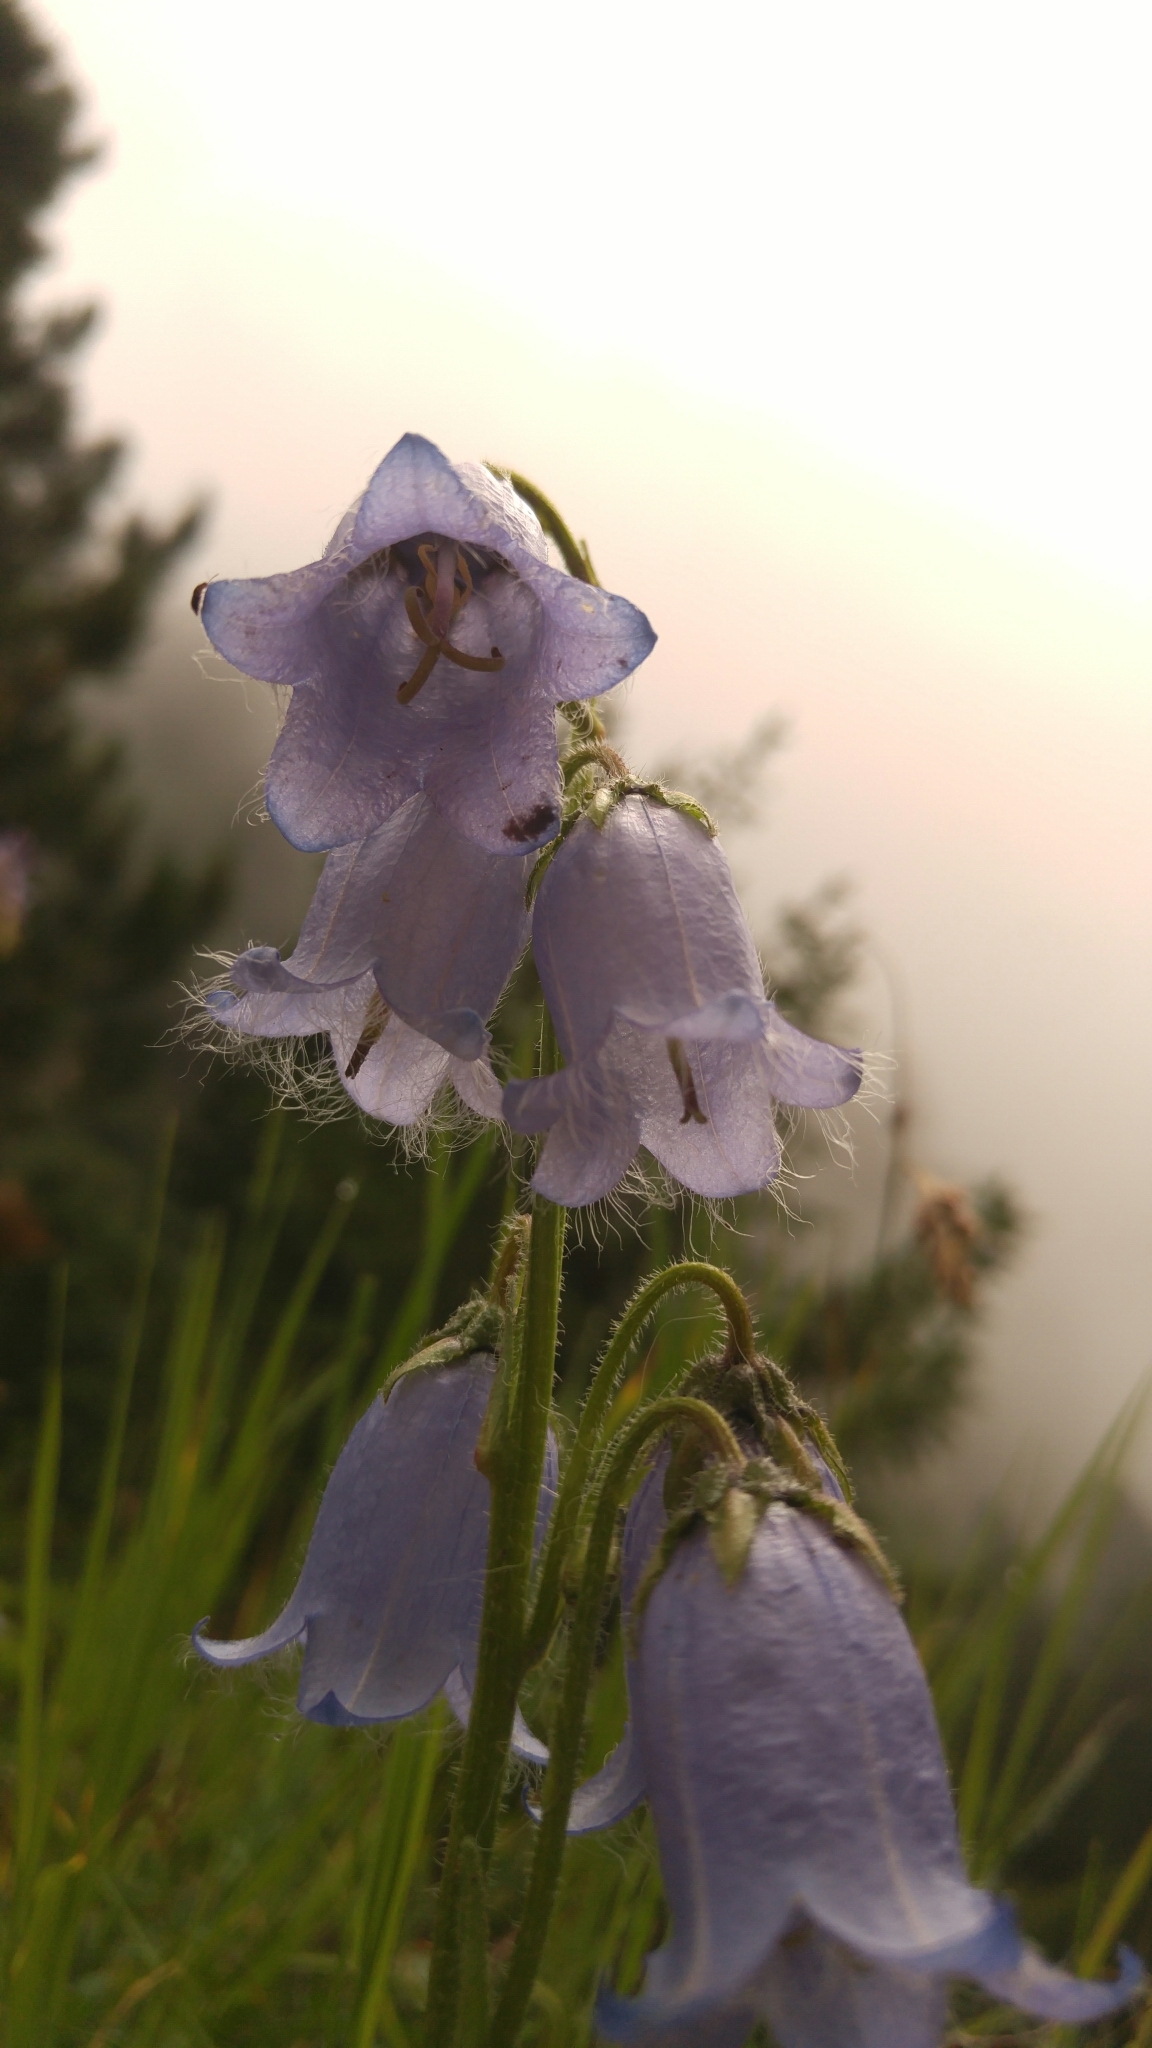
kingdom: Plantae
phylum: Tracheophyta
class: Magnoliopsida
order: Asterales
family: Campanulaceae
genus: Campanula
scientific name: Campanula barbata
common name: Bearded bellflower
